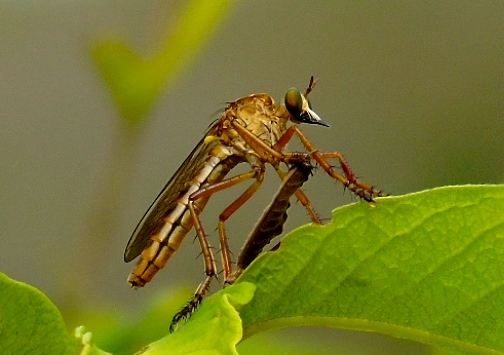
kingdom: Animalia
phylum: Arthropoda
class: Insecta
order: Diptera
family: Asilidae
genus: Diogmites
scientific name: Diogmites
